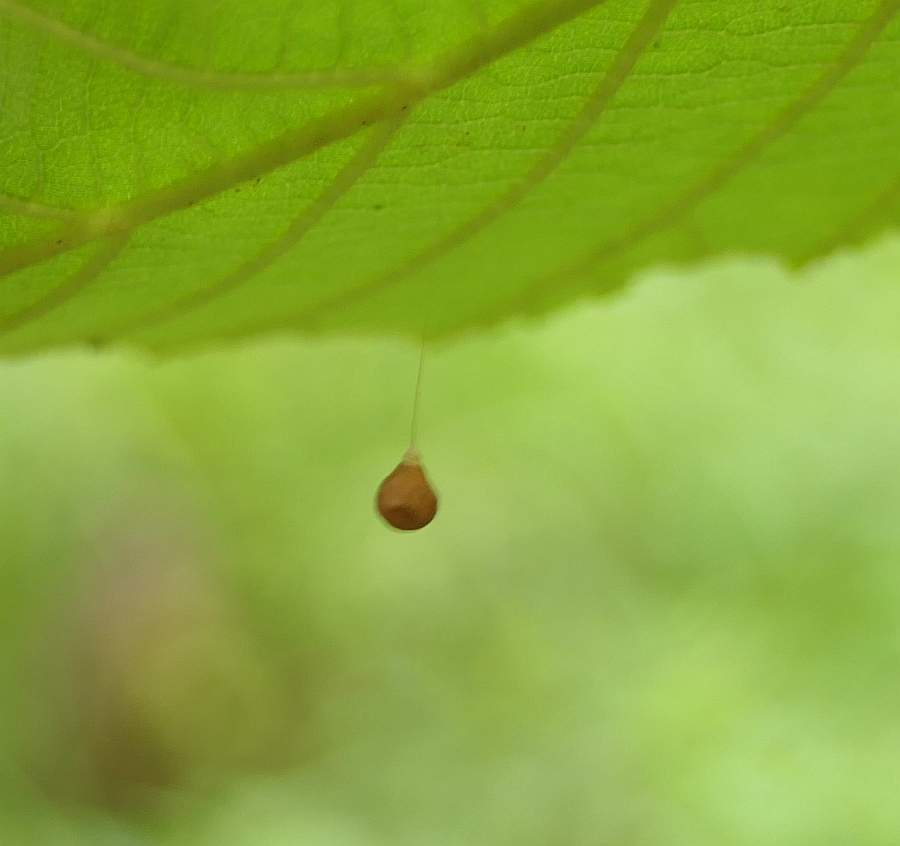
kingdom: Animalia
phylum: Arthropoda
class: Arachnida
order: Araneae
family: Theridiosomatidae
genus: Theridiosoma
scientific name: Theridiosoma gemmosum
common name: Ray spider
